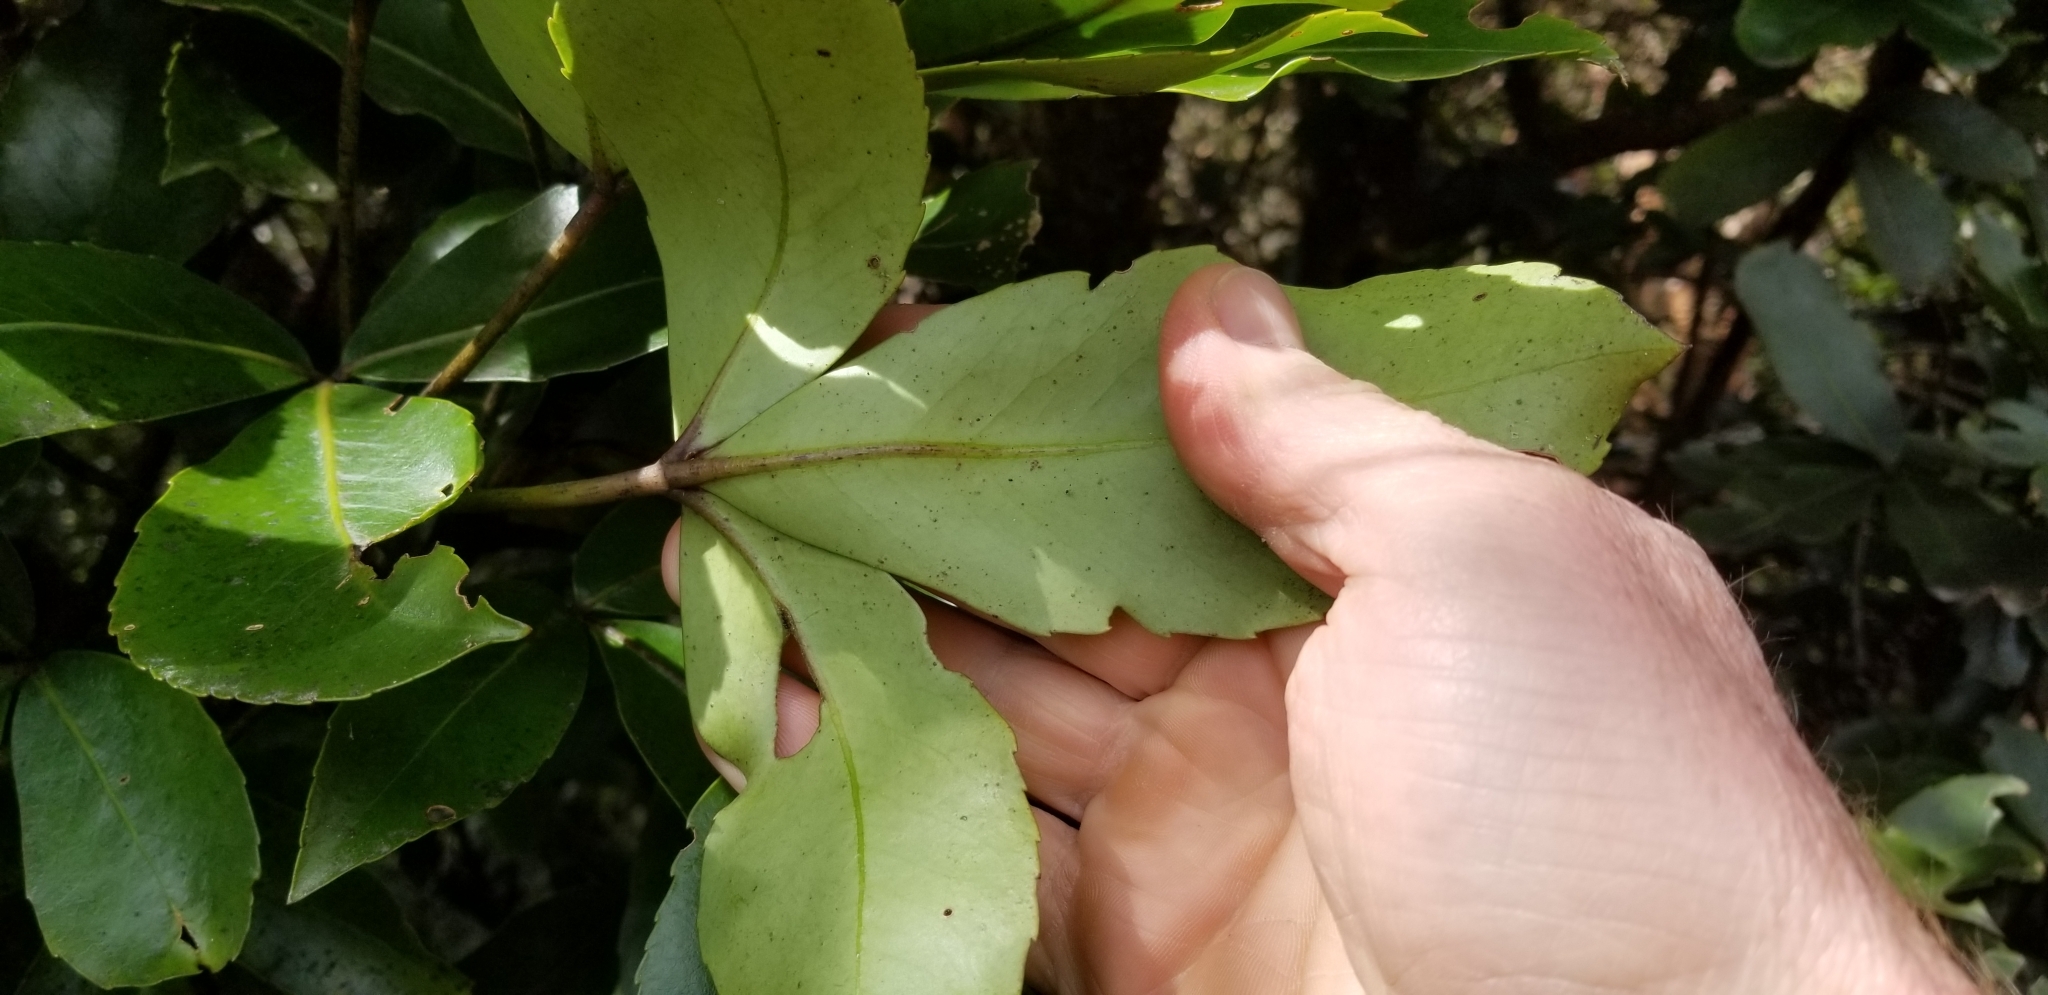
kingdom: Plantae
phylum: Tracheophyta
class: Magnoliopsida
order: Apiales
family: Araliaceae
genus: Neopanax
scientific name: Neopanax colensoi
